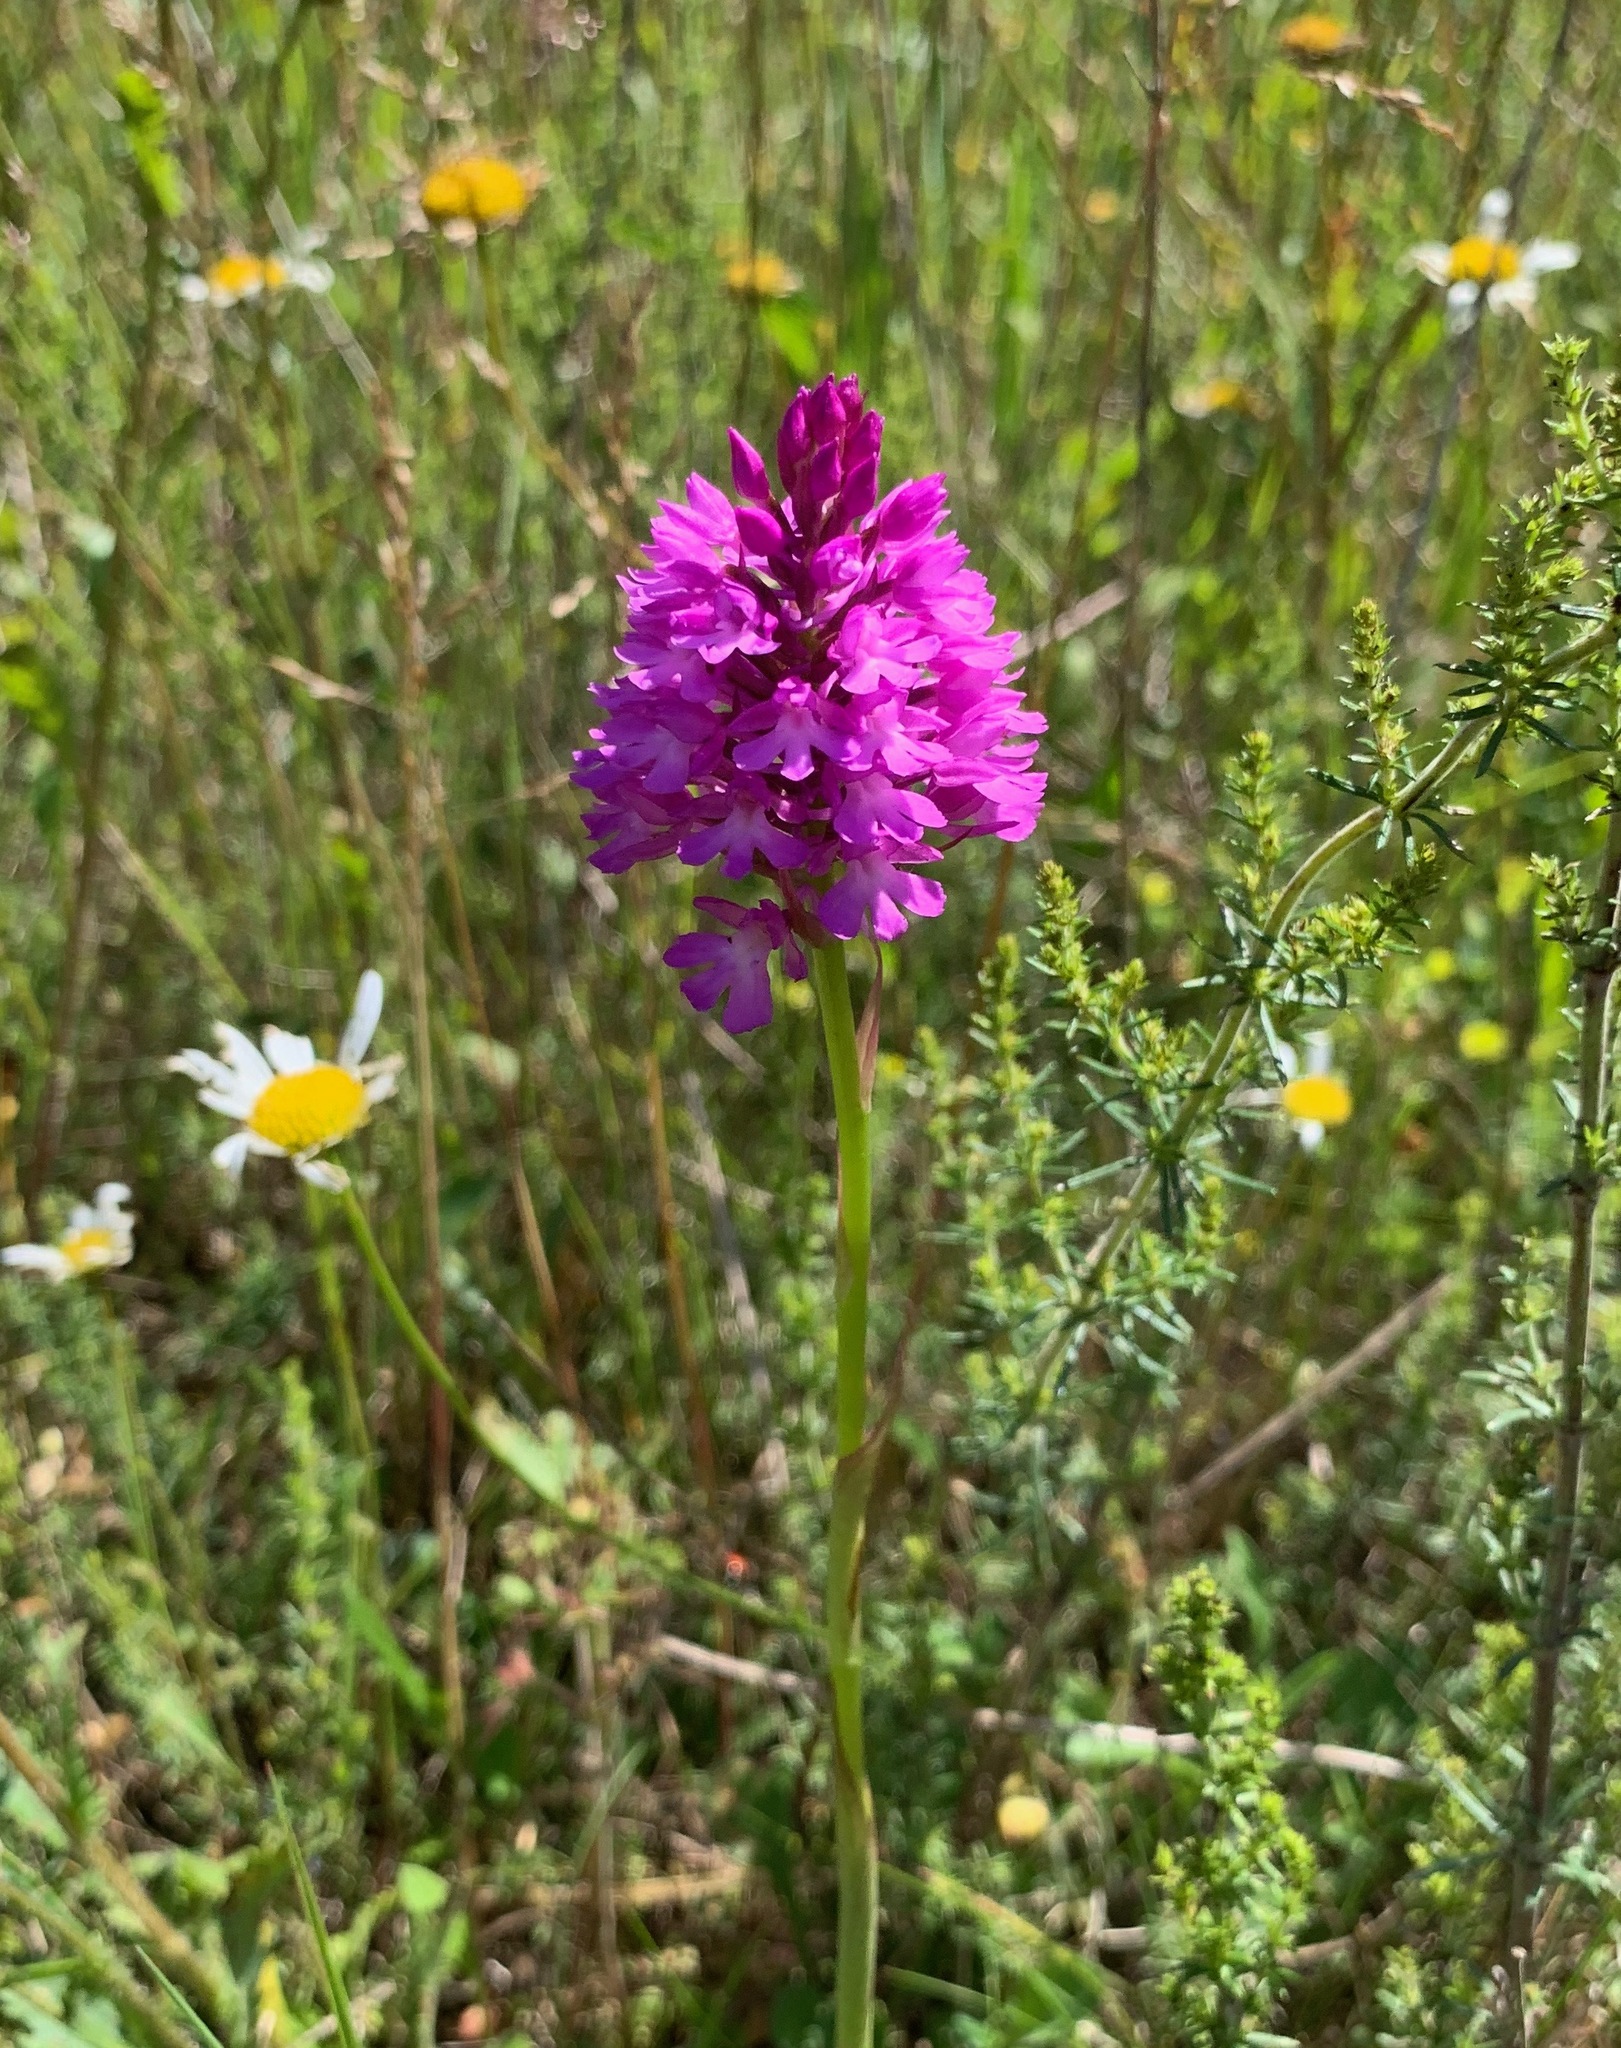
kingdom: Plantae
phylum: Tracheophyta
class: Liliopsida
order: Asparagales
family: Orchidaceae
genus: Anacamptis
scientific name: Anacamptis pyramidalis
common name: Pyramidal orchid
